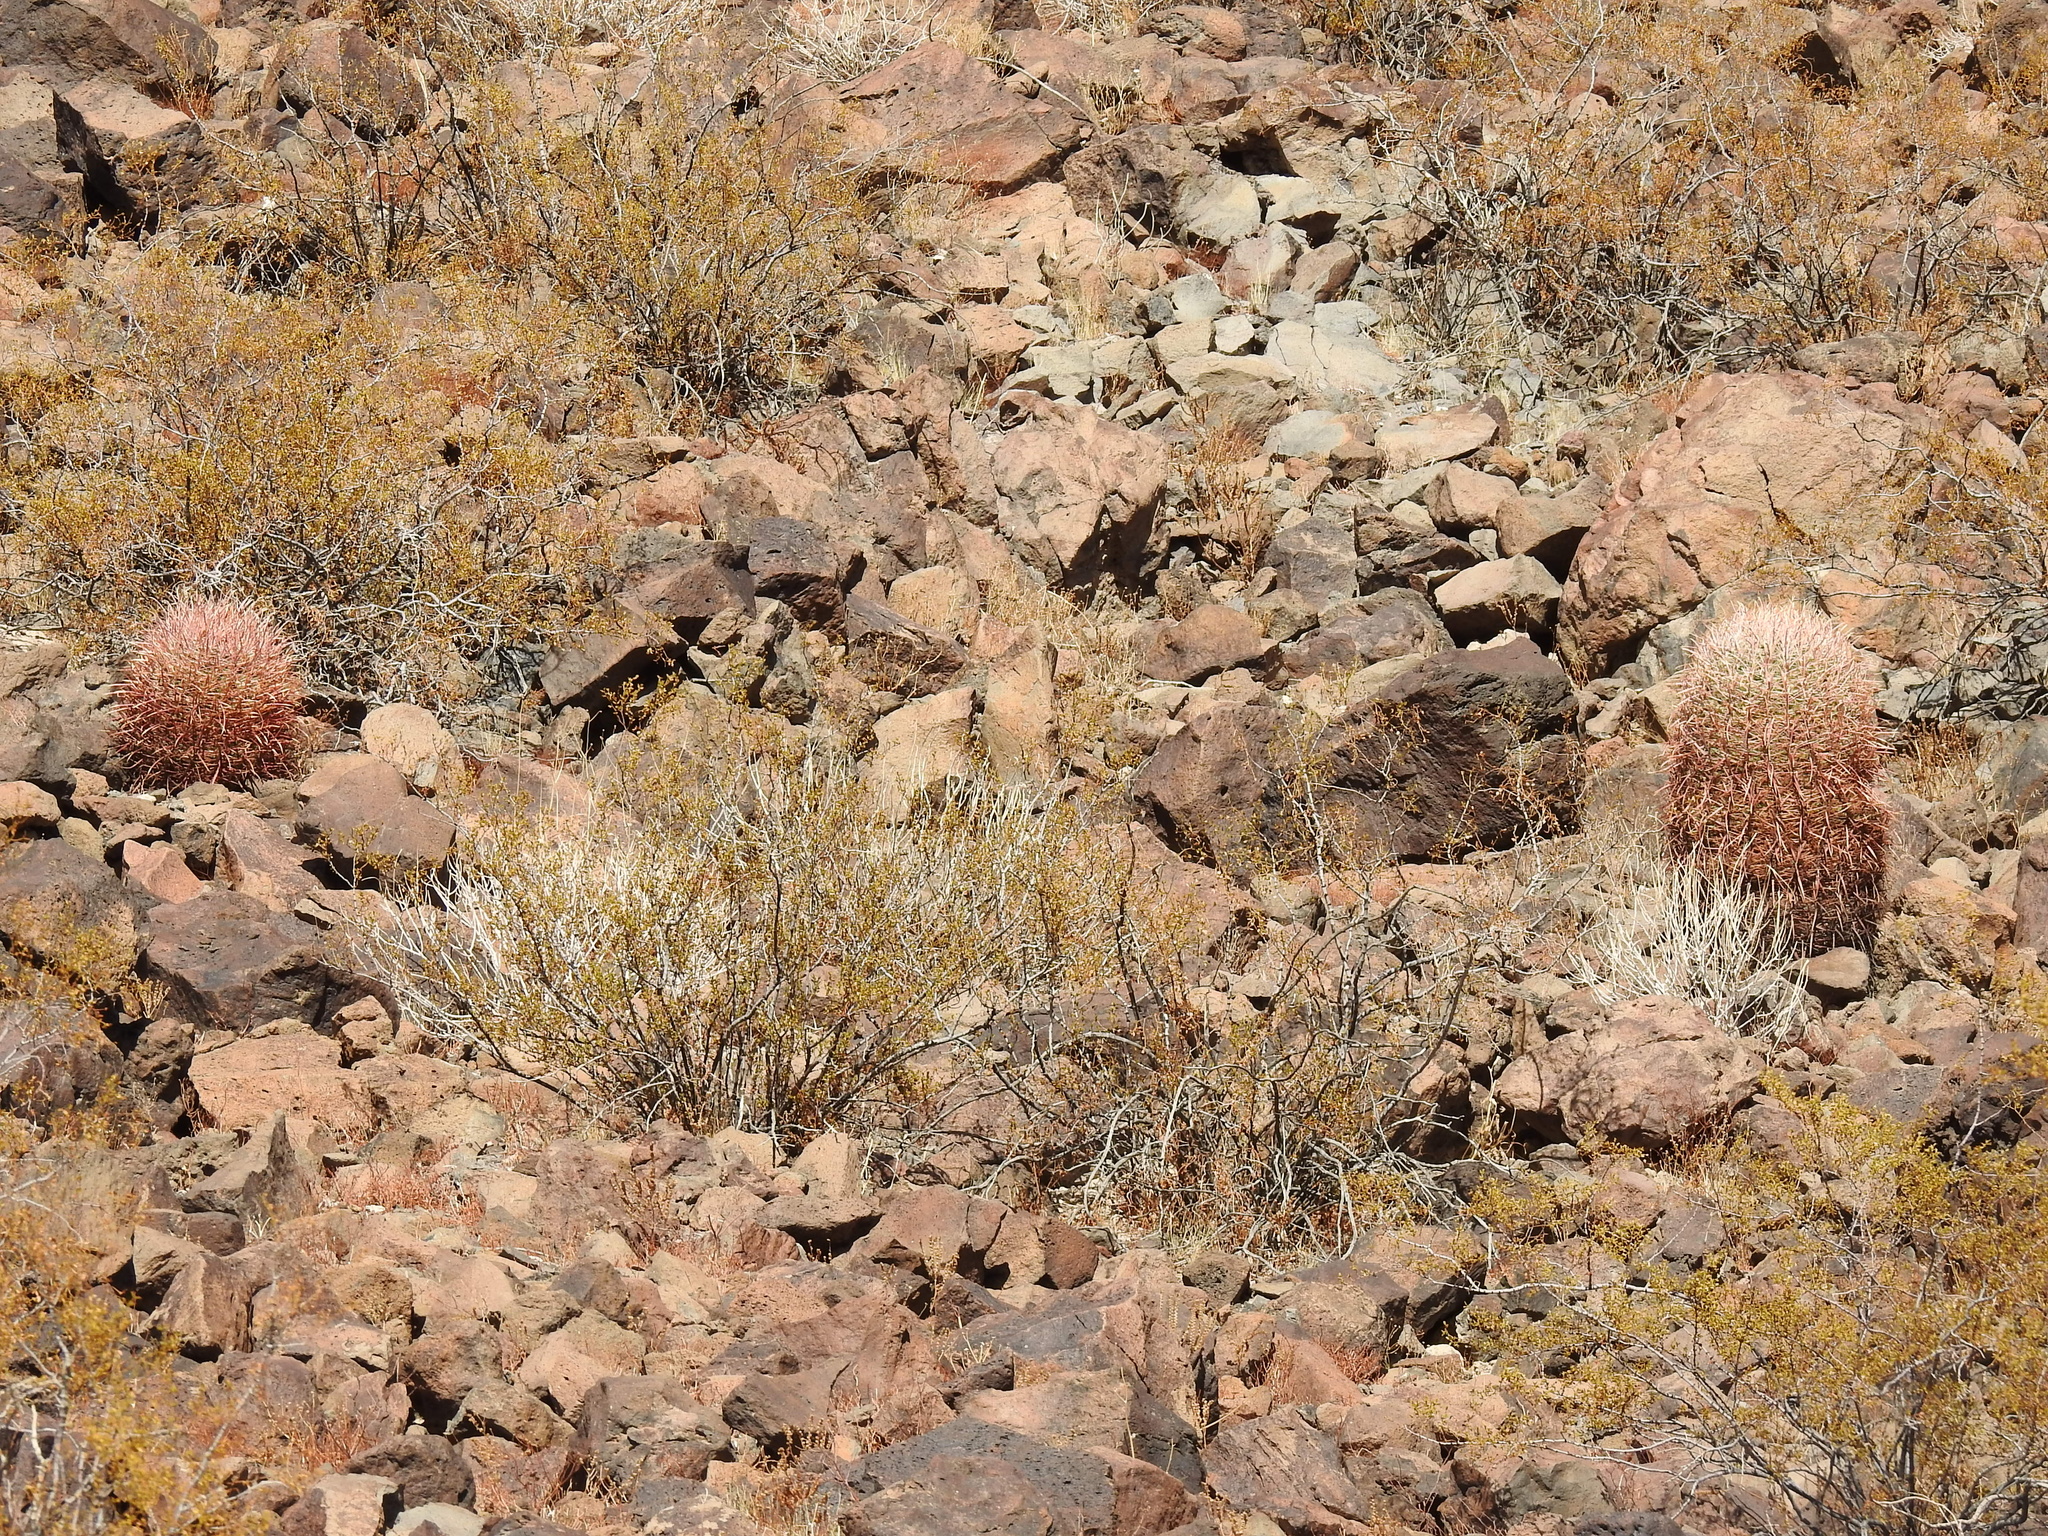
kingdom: Plantae
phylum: Tracheophyta
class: Magnoliopsida
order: Caryophyllales
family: Cactaceae
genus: Ferocactus
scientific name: Ferocactus cylindraceus
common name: California barrel cactus
